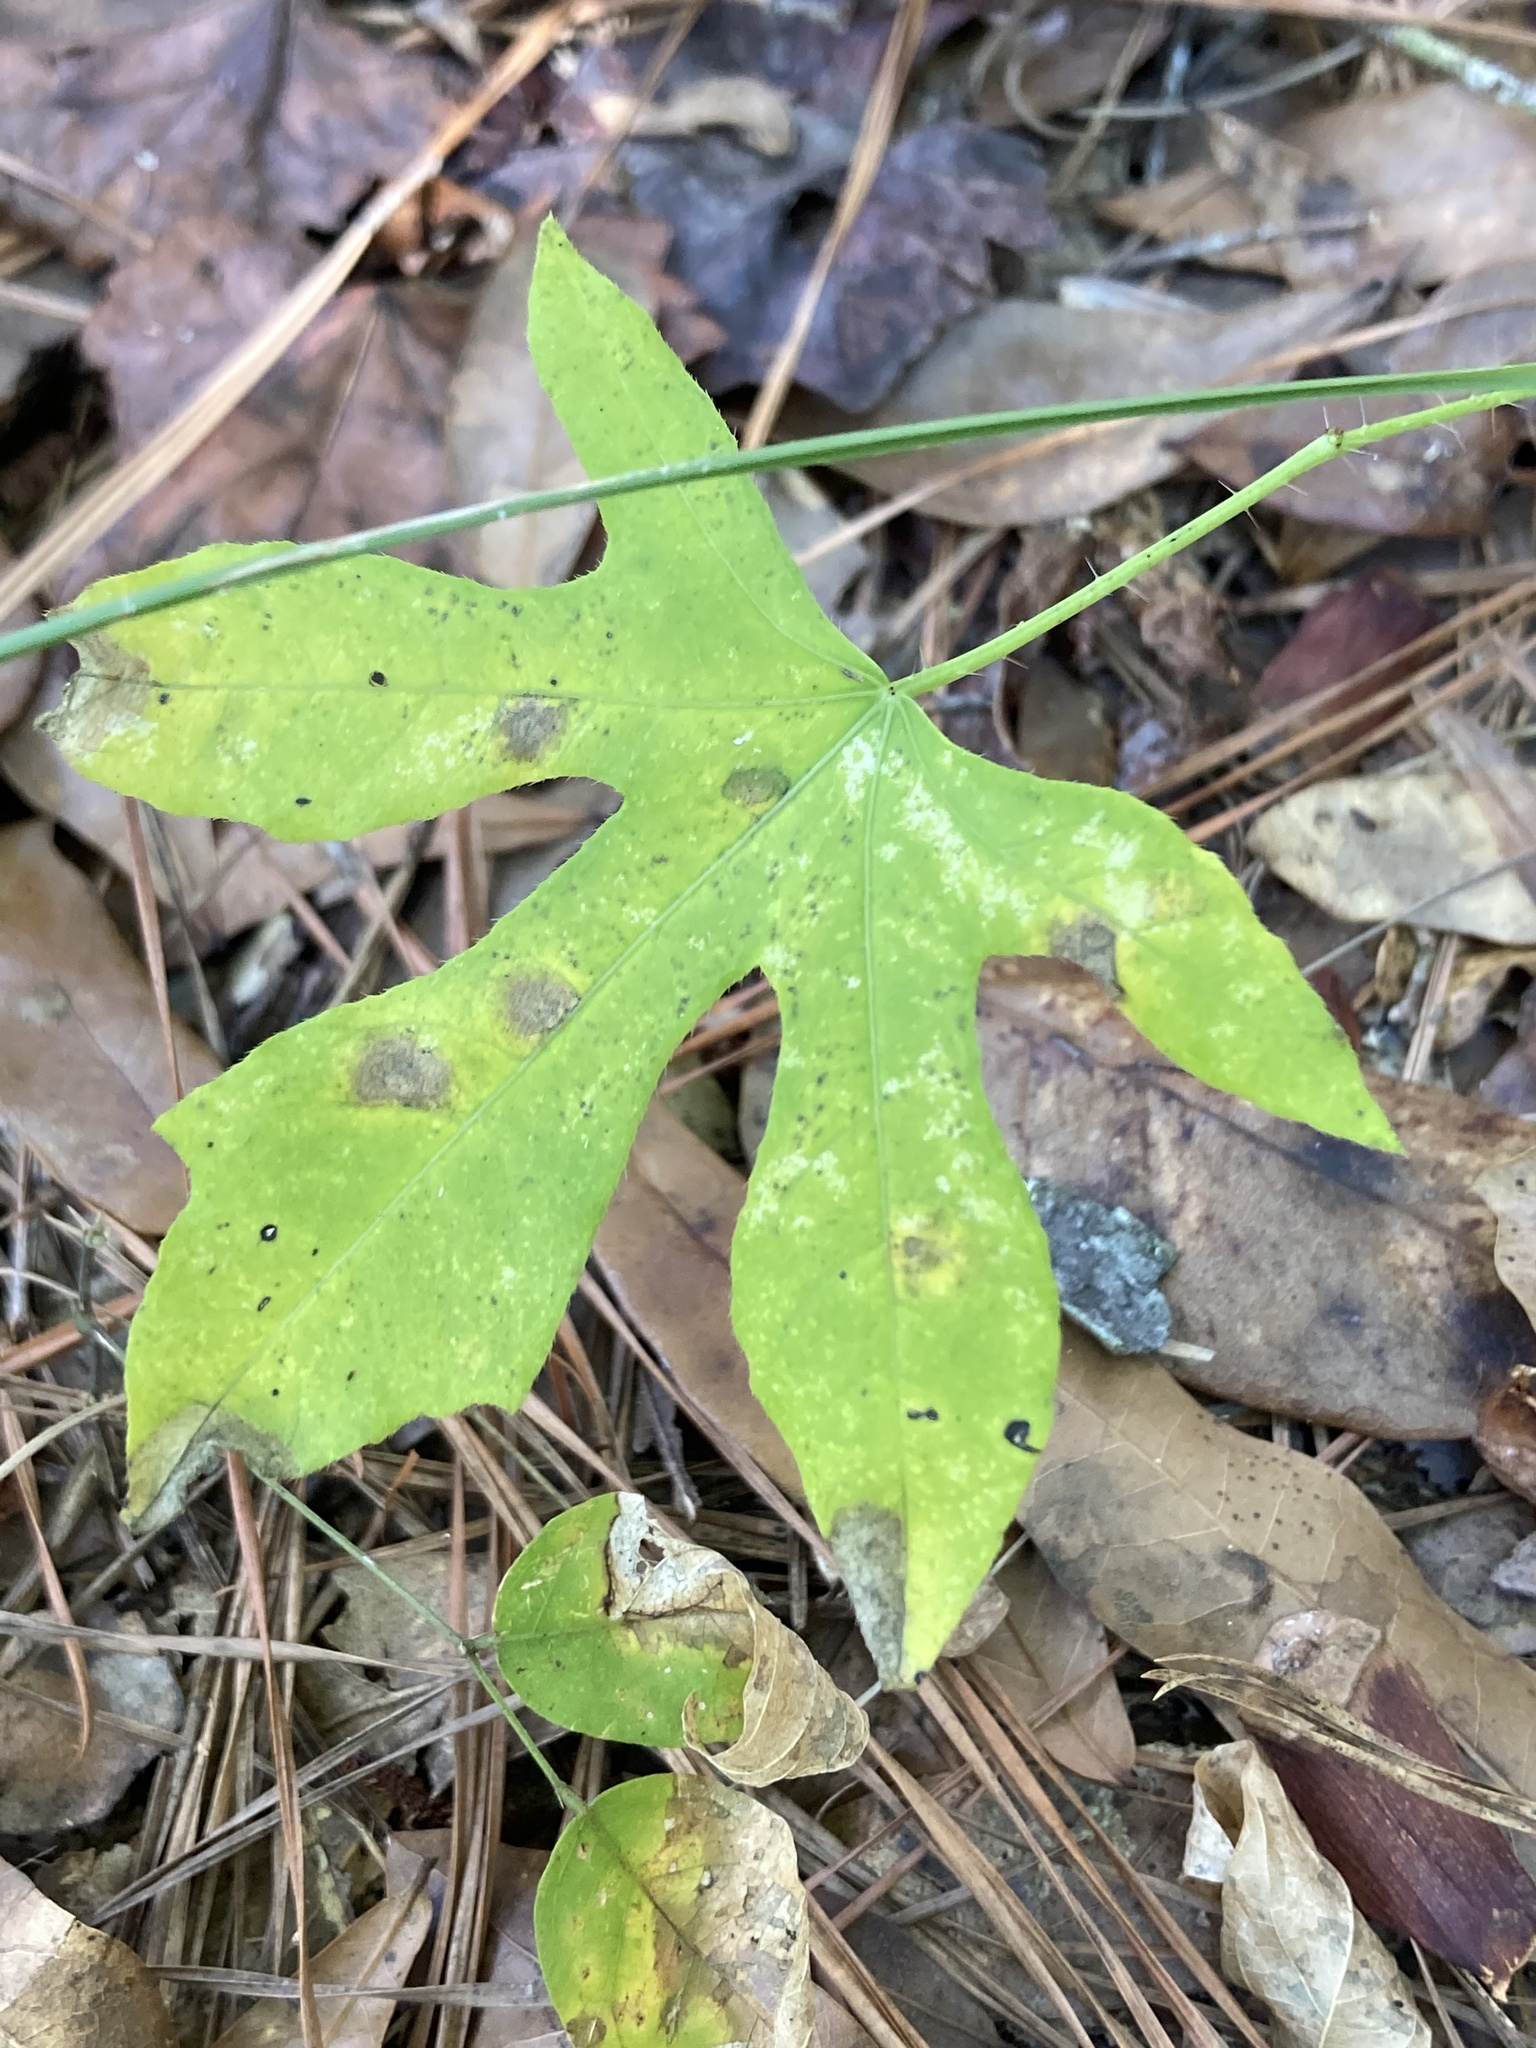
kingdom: Plantae
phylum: Tracheophyta
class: Magnoliopsida
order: Malpighiales
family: Euphorbiaceae
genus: Cnidoscolus
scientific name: Cnidoscolus stimulosus
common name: Bull-nettle
